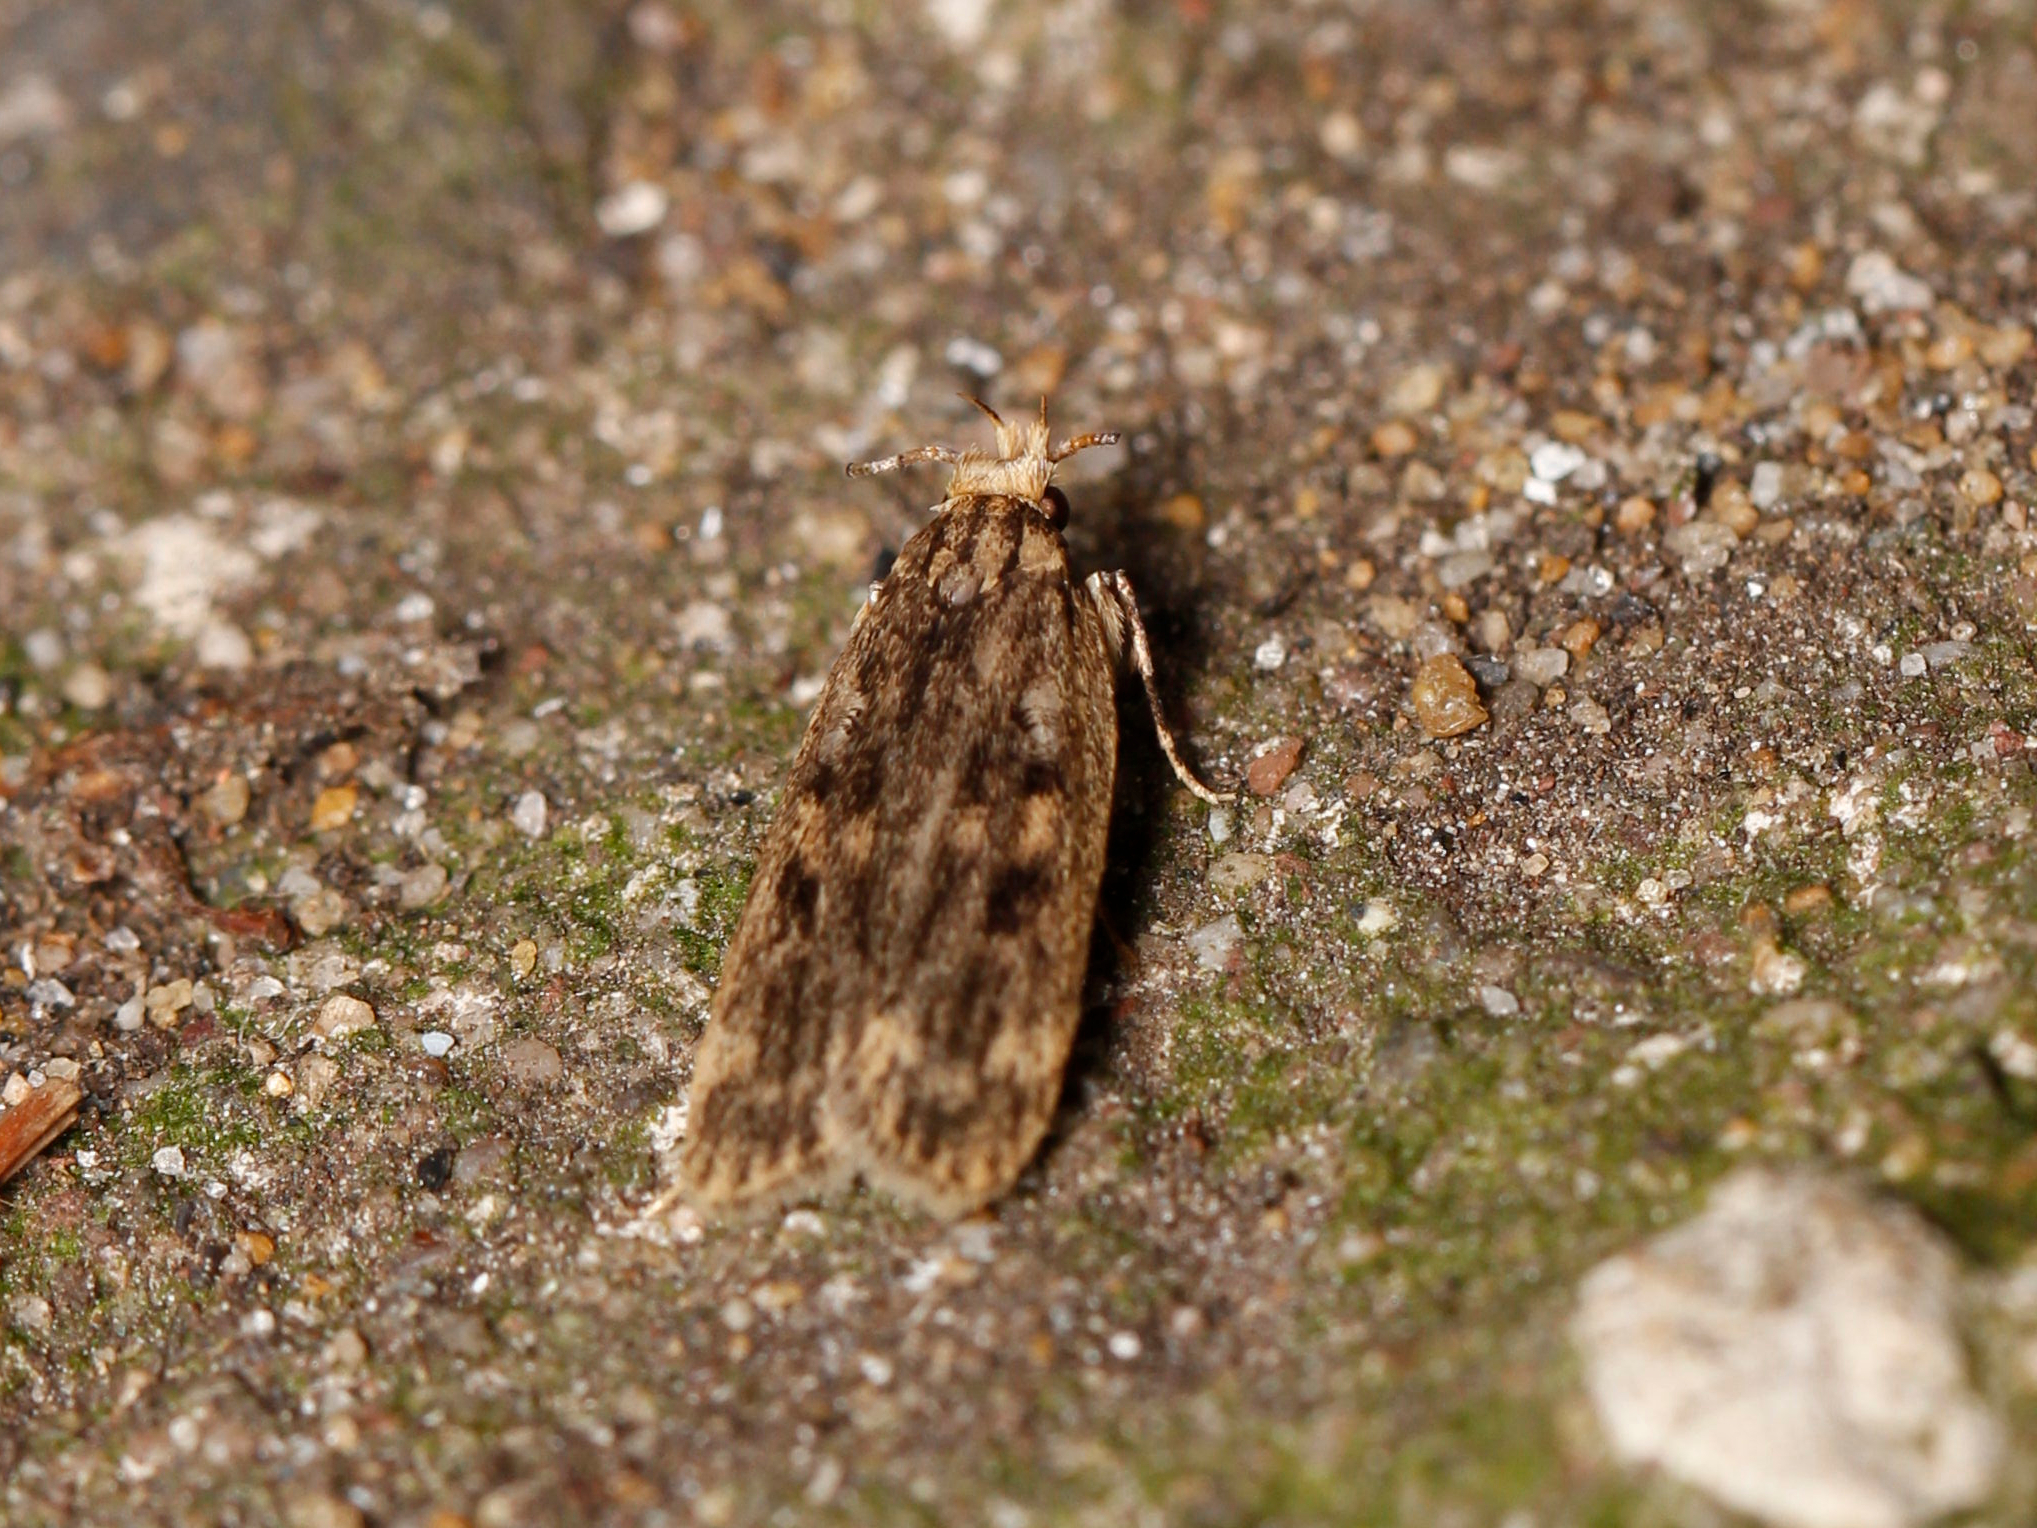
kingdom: Animalia
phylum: Arthropoda
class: Insecta
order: Lepidoptera
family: Lecithoceridae
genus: Martyringa
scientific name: Martyringa xeraula
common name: Himalayan grain moth
